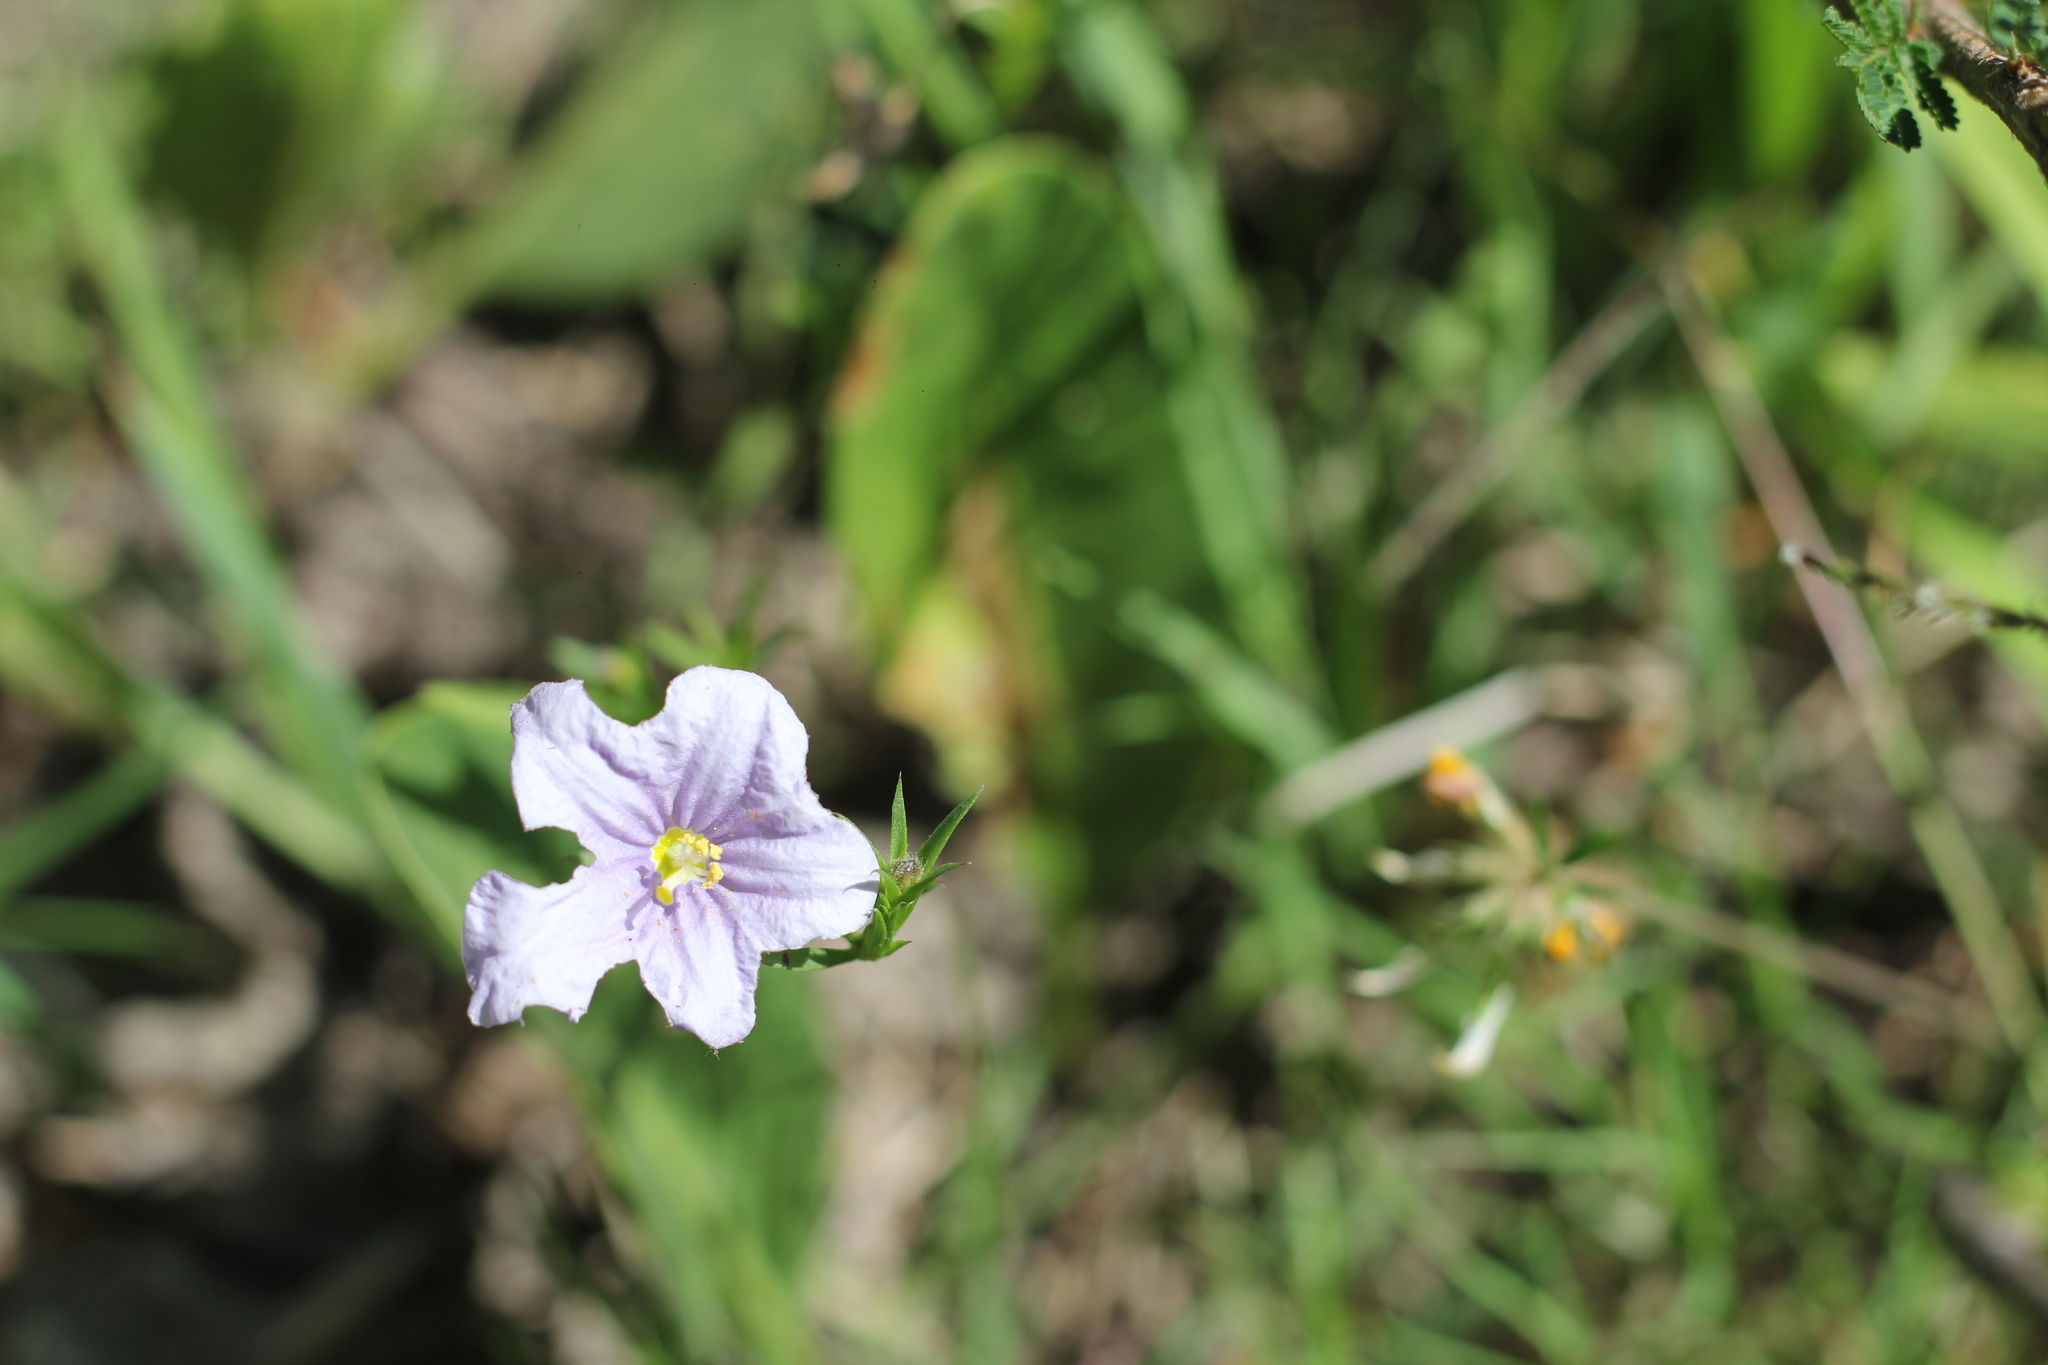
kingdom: Plantae
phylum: Tracheophyta
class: Magnoliopsida
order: Solanales
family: Solanaceae
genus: Nierembergia
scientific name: Nierembergia linariifolia
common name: Dwarf cupflower
